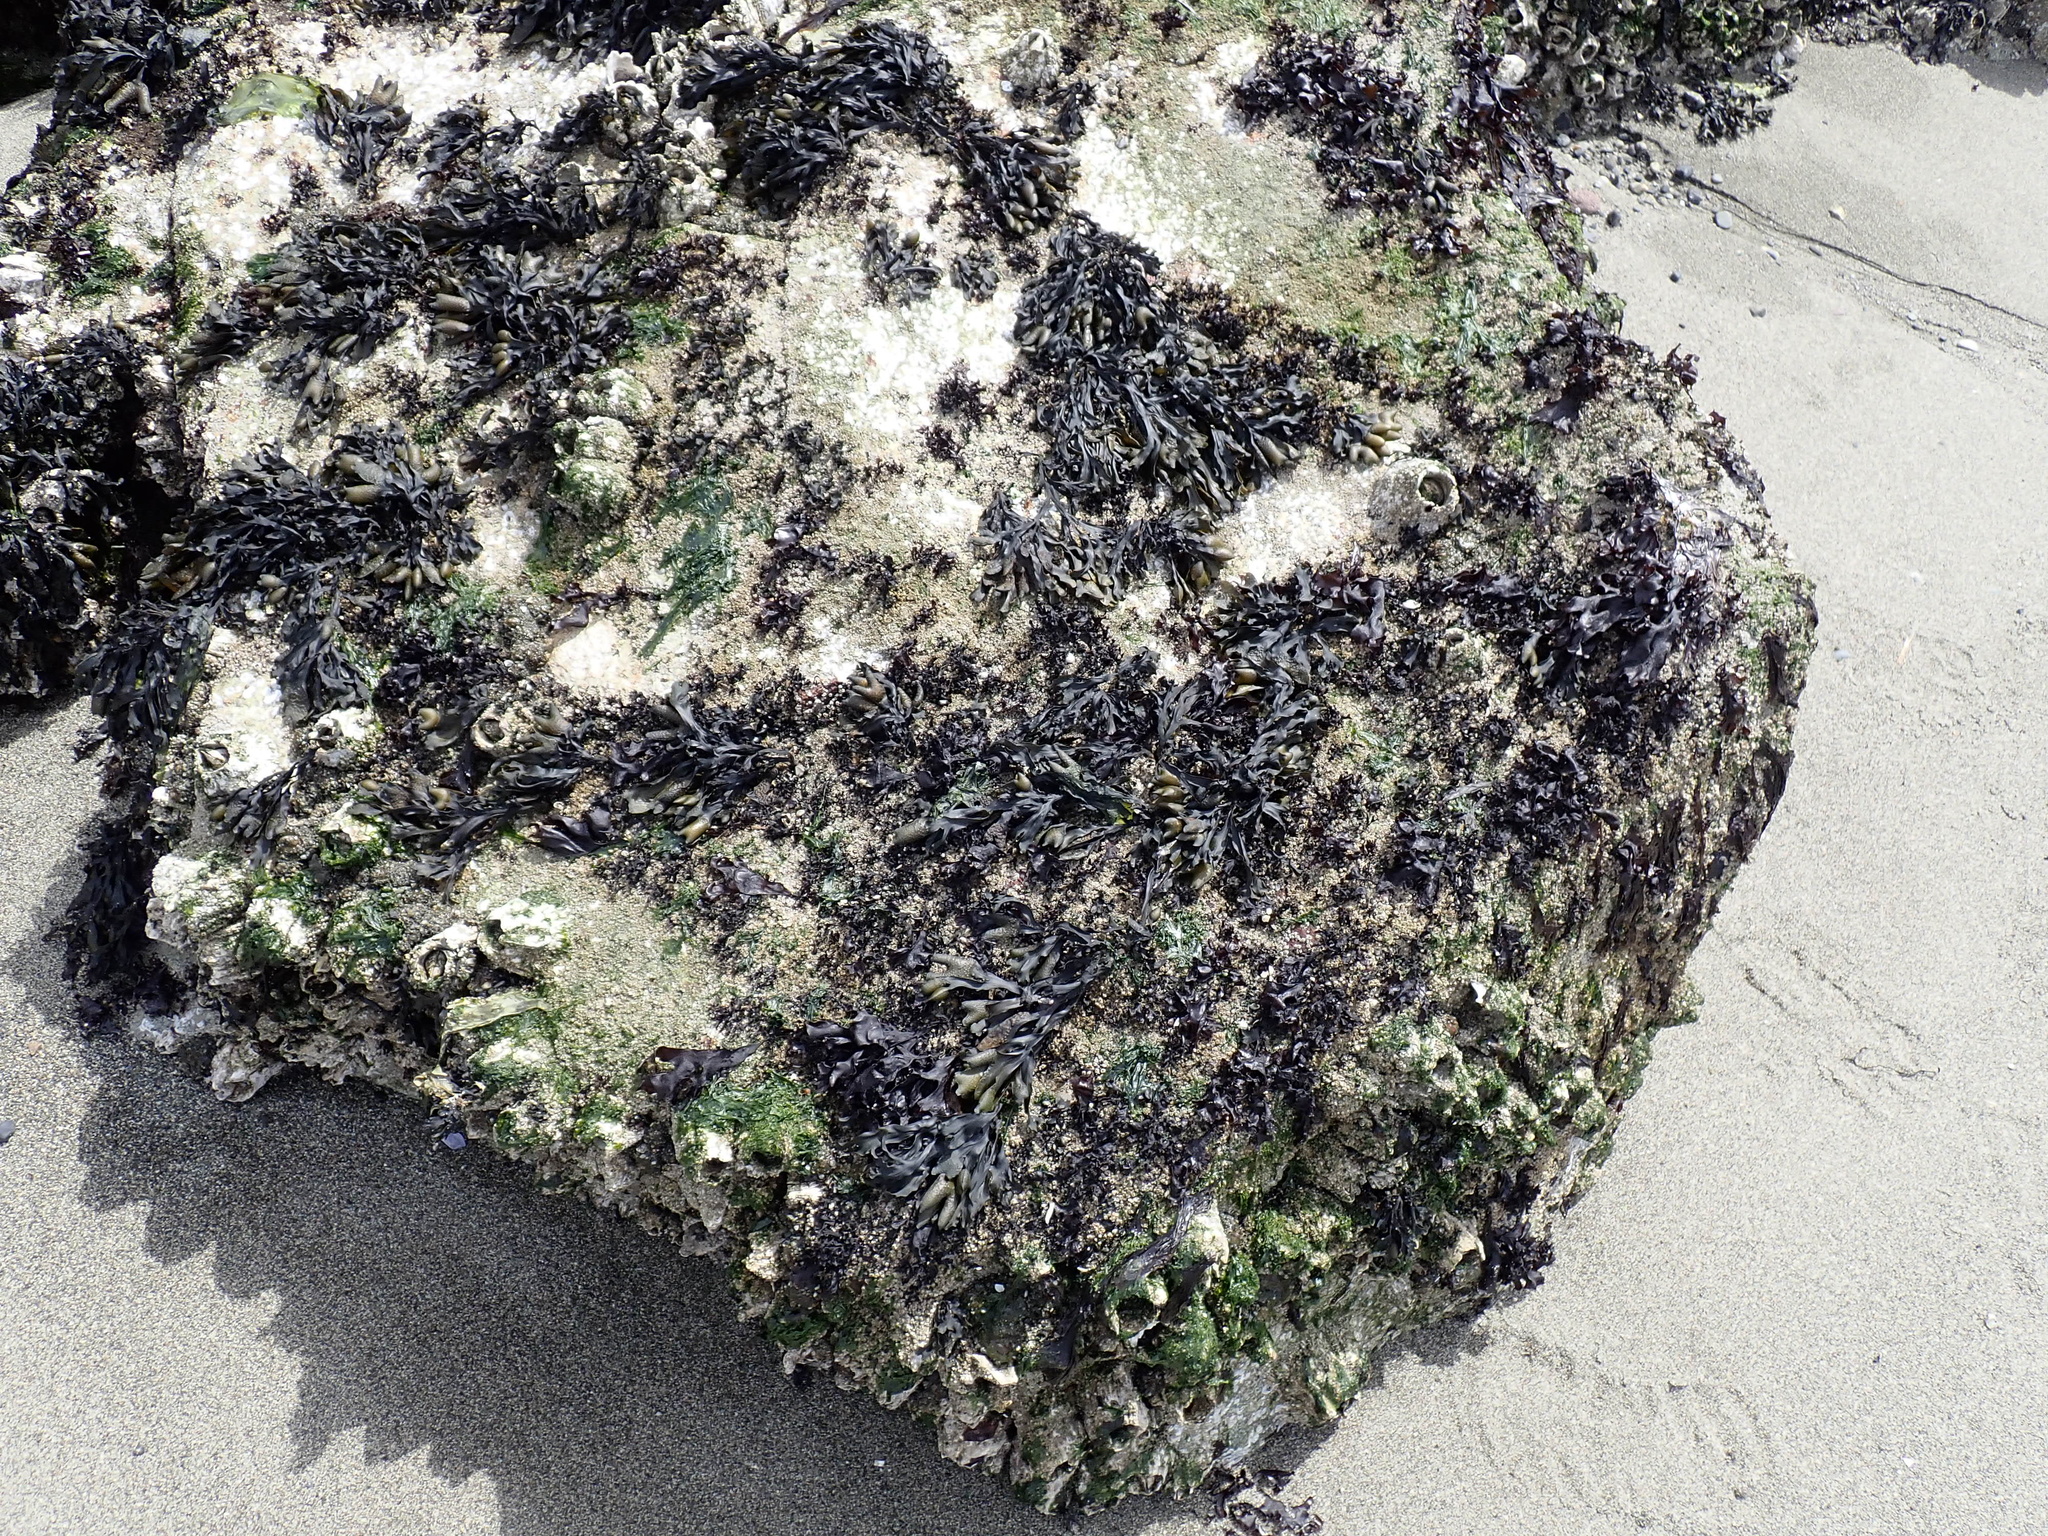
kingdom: Chromista
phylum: Ochrophyta
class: Phaeophyceae
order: Fucales
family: Fucaceae
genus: Fucus
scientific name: Fucus distichus
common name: Rockweed
